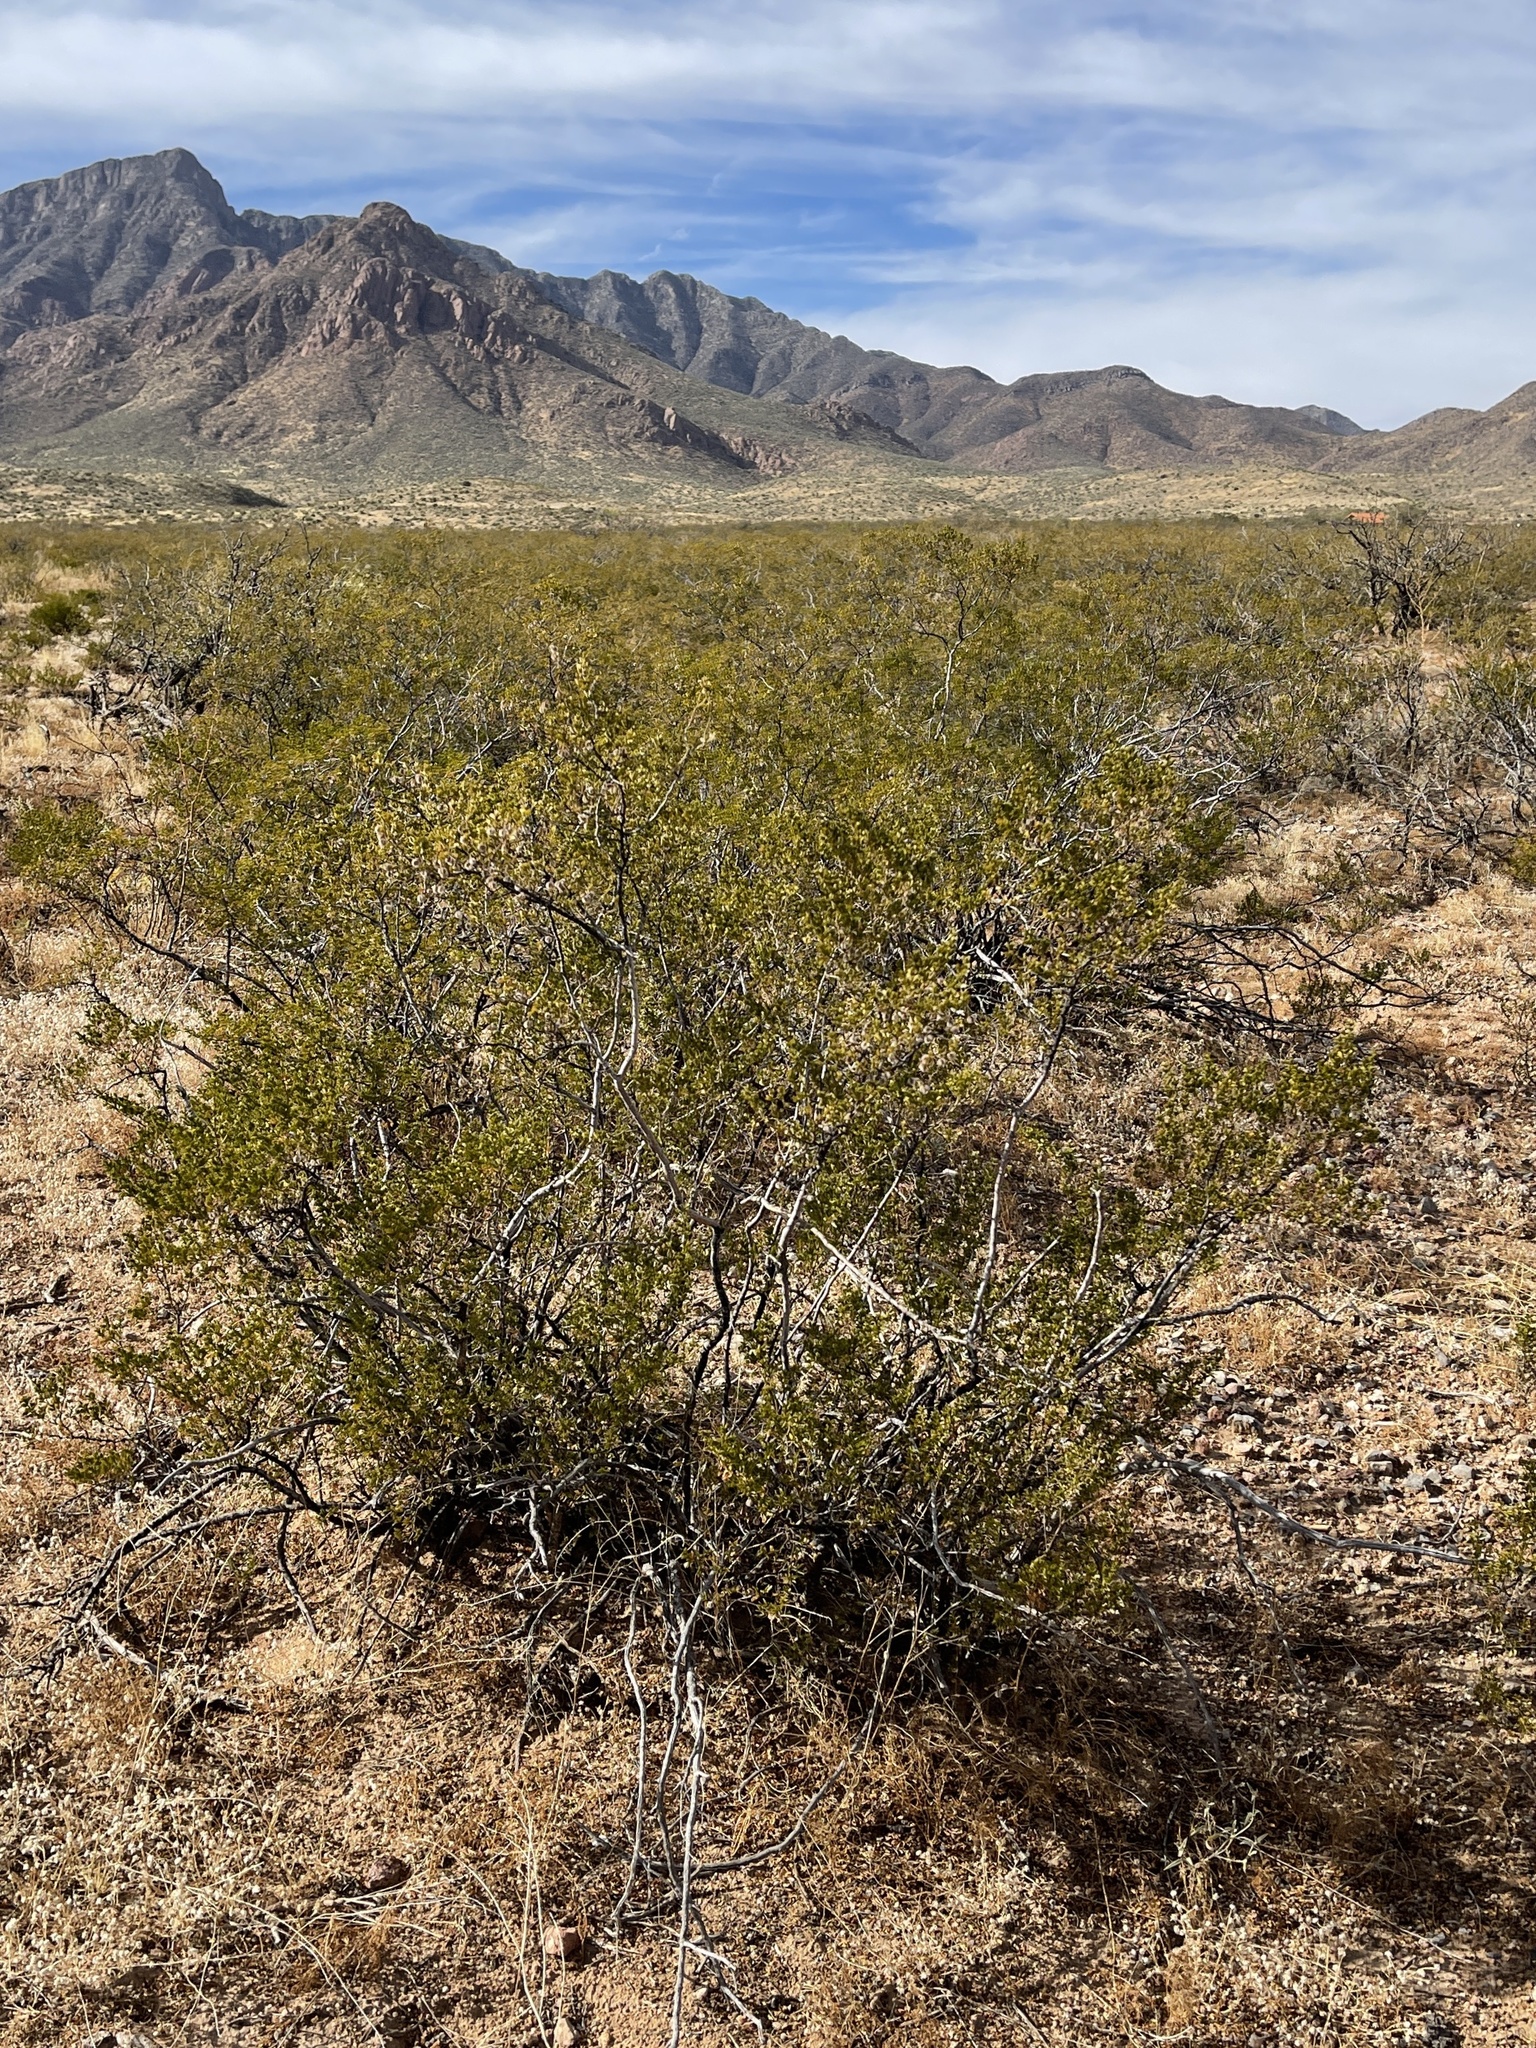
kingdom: Plantae
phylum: Tracheophyta
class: Magnoliopsida
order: Zygophyllales
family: Zygophyllaceae
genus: Larrea
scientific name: Larrea tridentata
